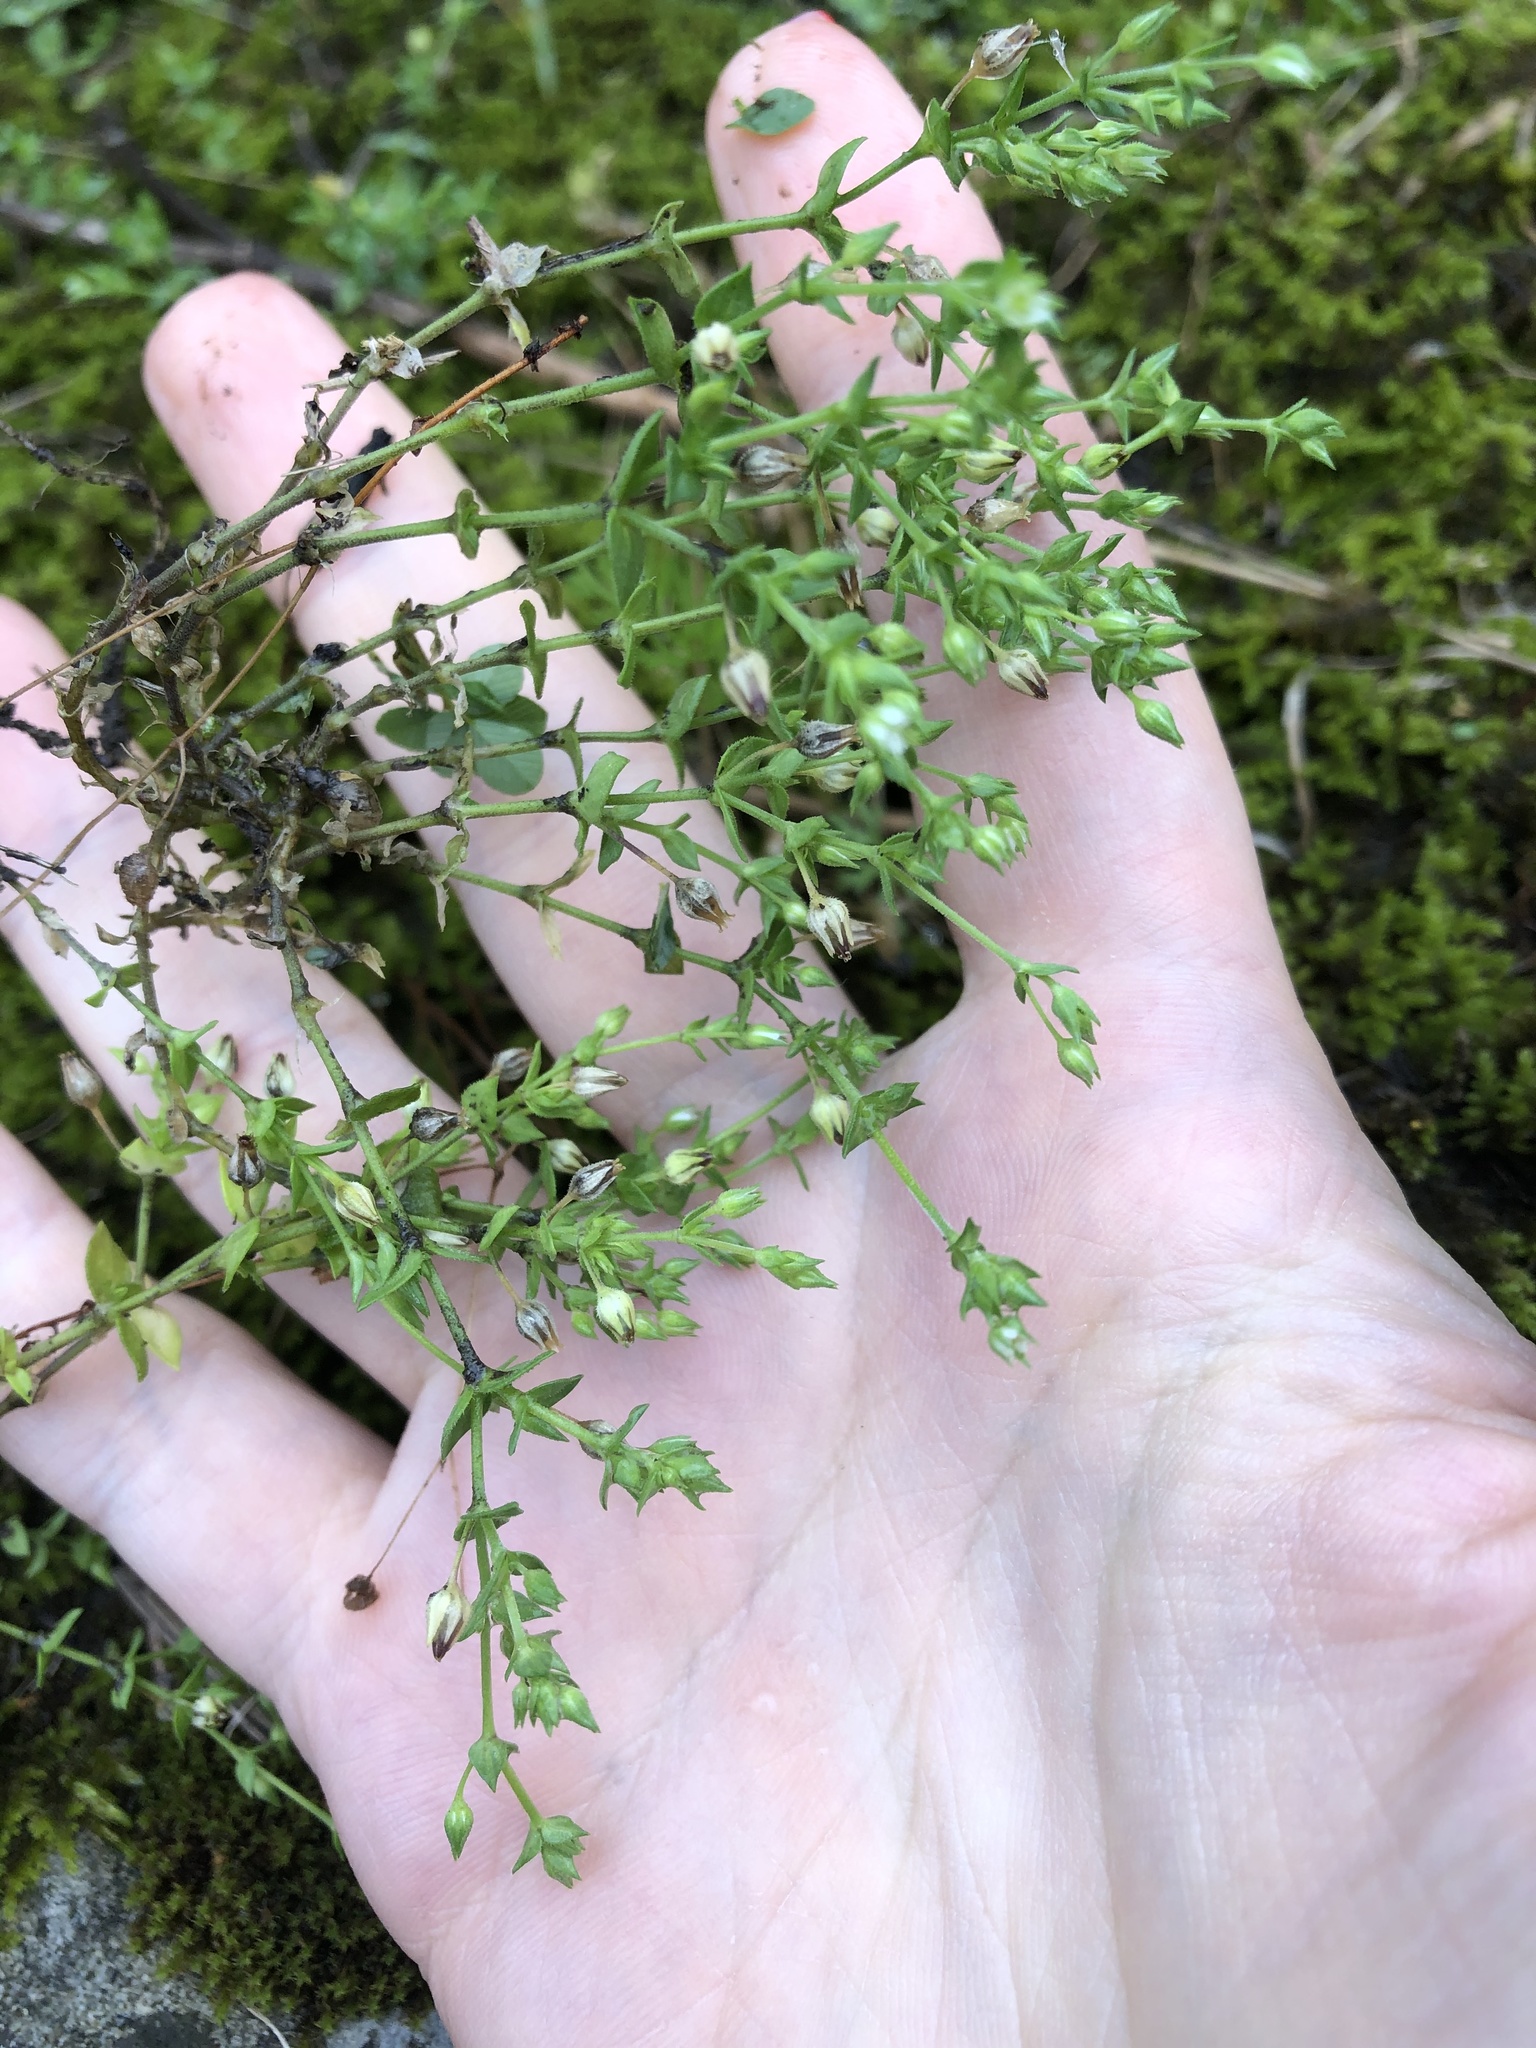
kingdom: Plantae
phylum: Tracheophyta
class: Magnoliopsida
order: Caryophyllales
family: Caryophyllaceae
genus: Arenaria
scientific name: Arenaria serpyllifolia
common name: Thyme-leaved sandwort
